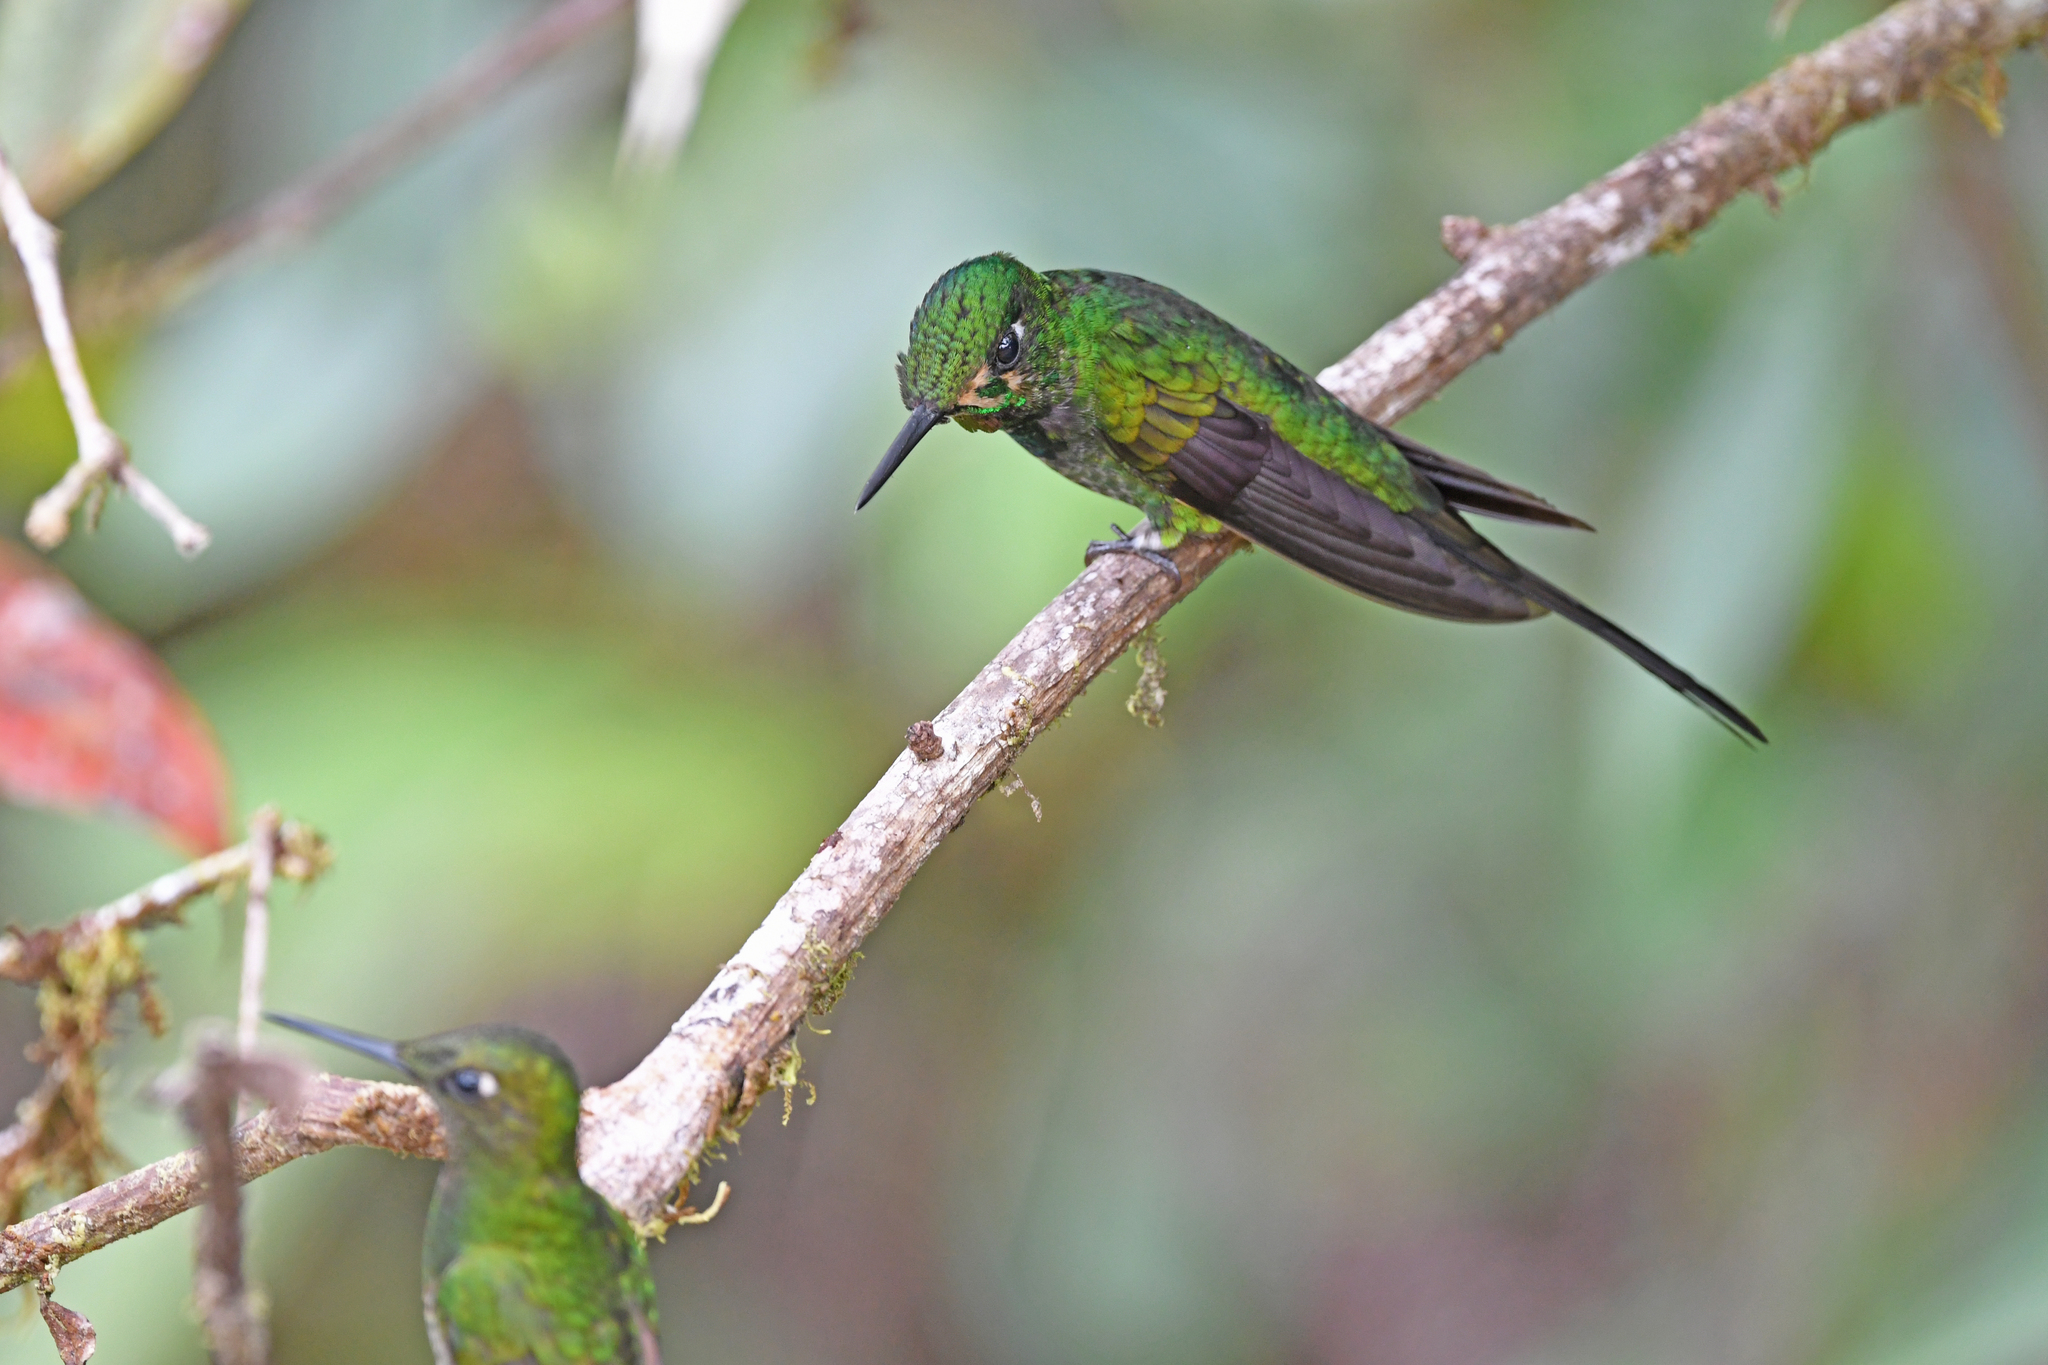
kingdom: Animalia
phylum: Chordata
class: Aves
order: Apodiformes
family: Trochilidae
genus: Heliodoxa
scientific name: Heliodoxa imperatrix
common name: Empress brilliant
